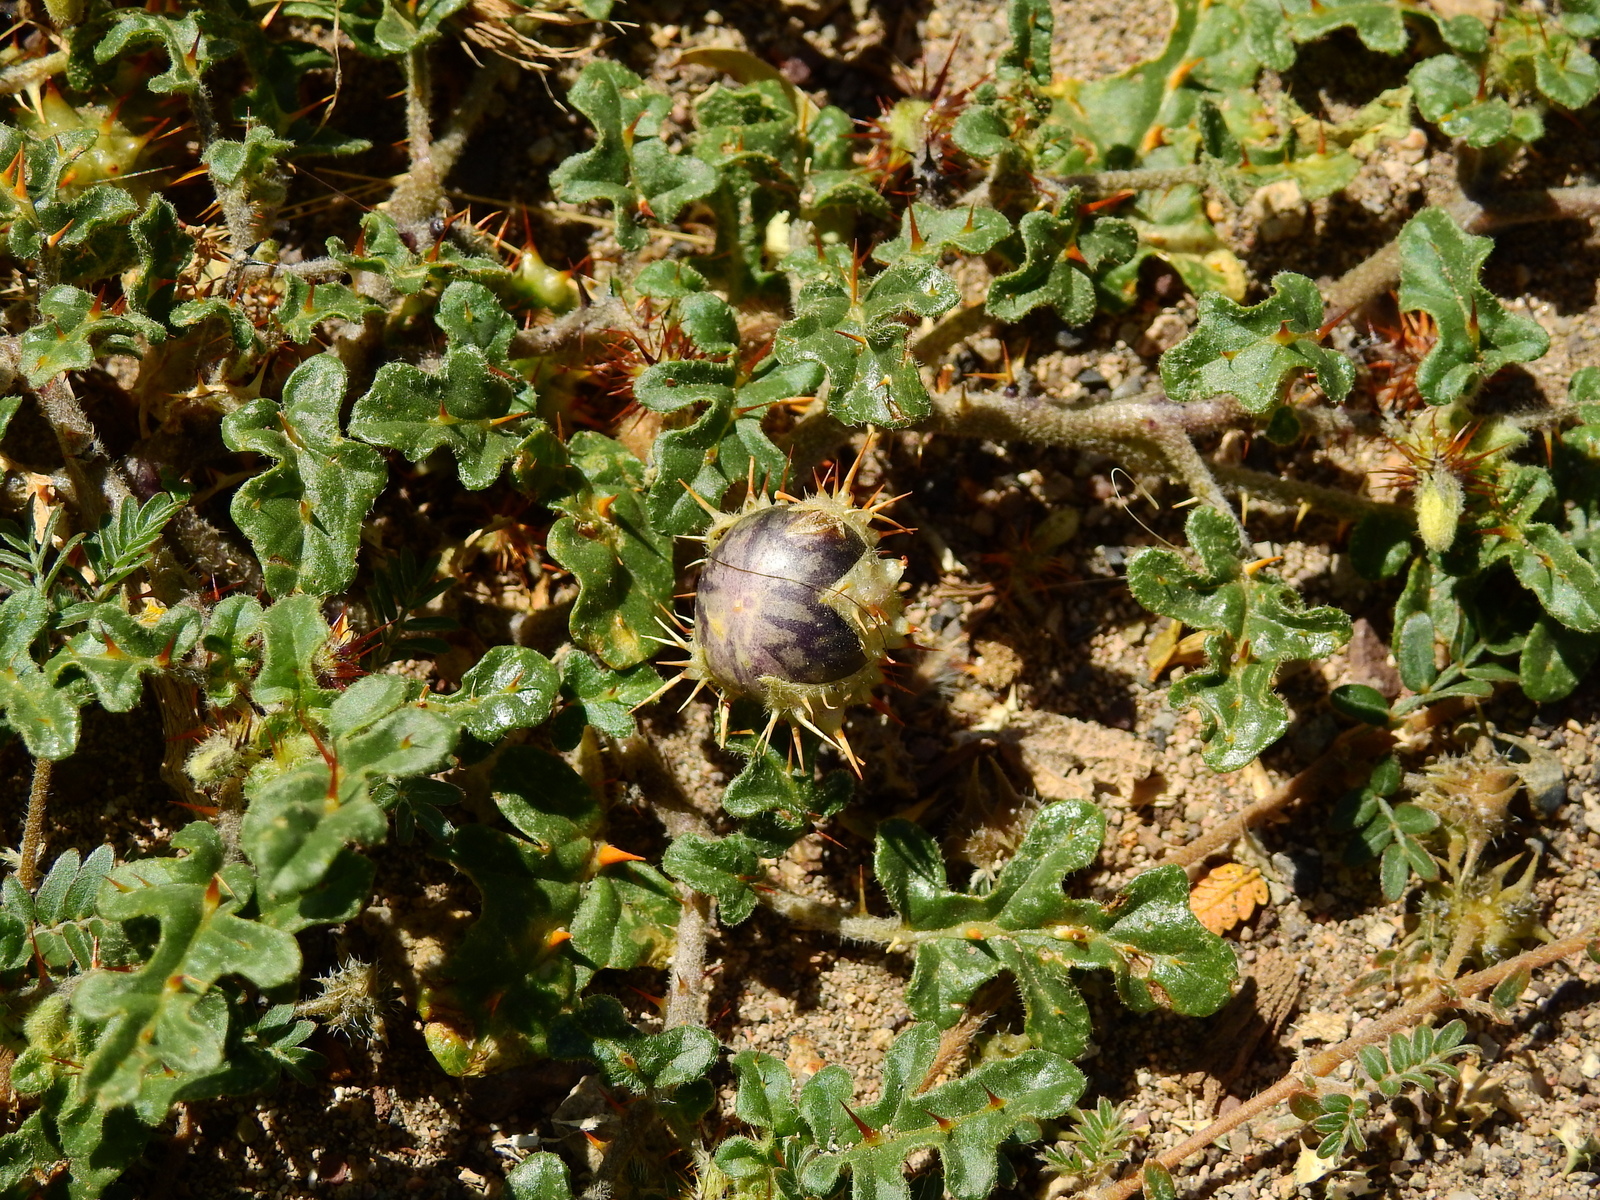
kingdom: Plantae
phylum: Tracheophyta
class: Magnoliopsida
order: Solanales
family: Solanaceae
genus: Solanum
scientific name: Solanum euacanthum
